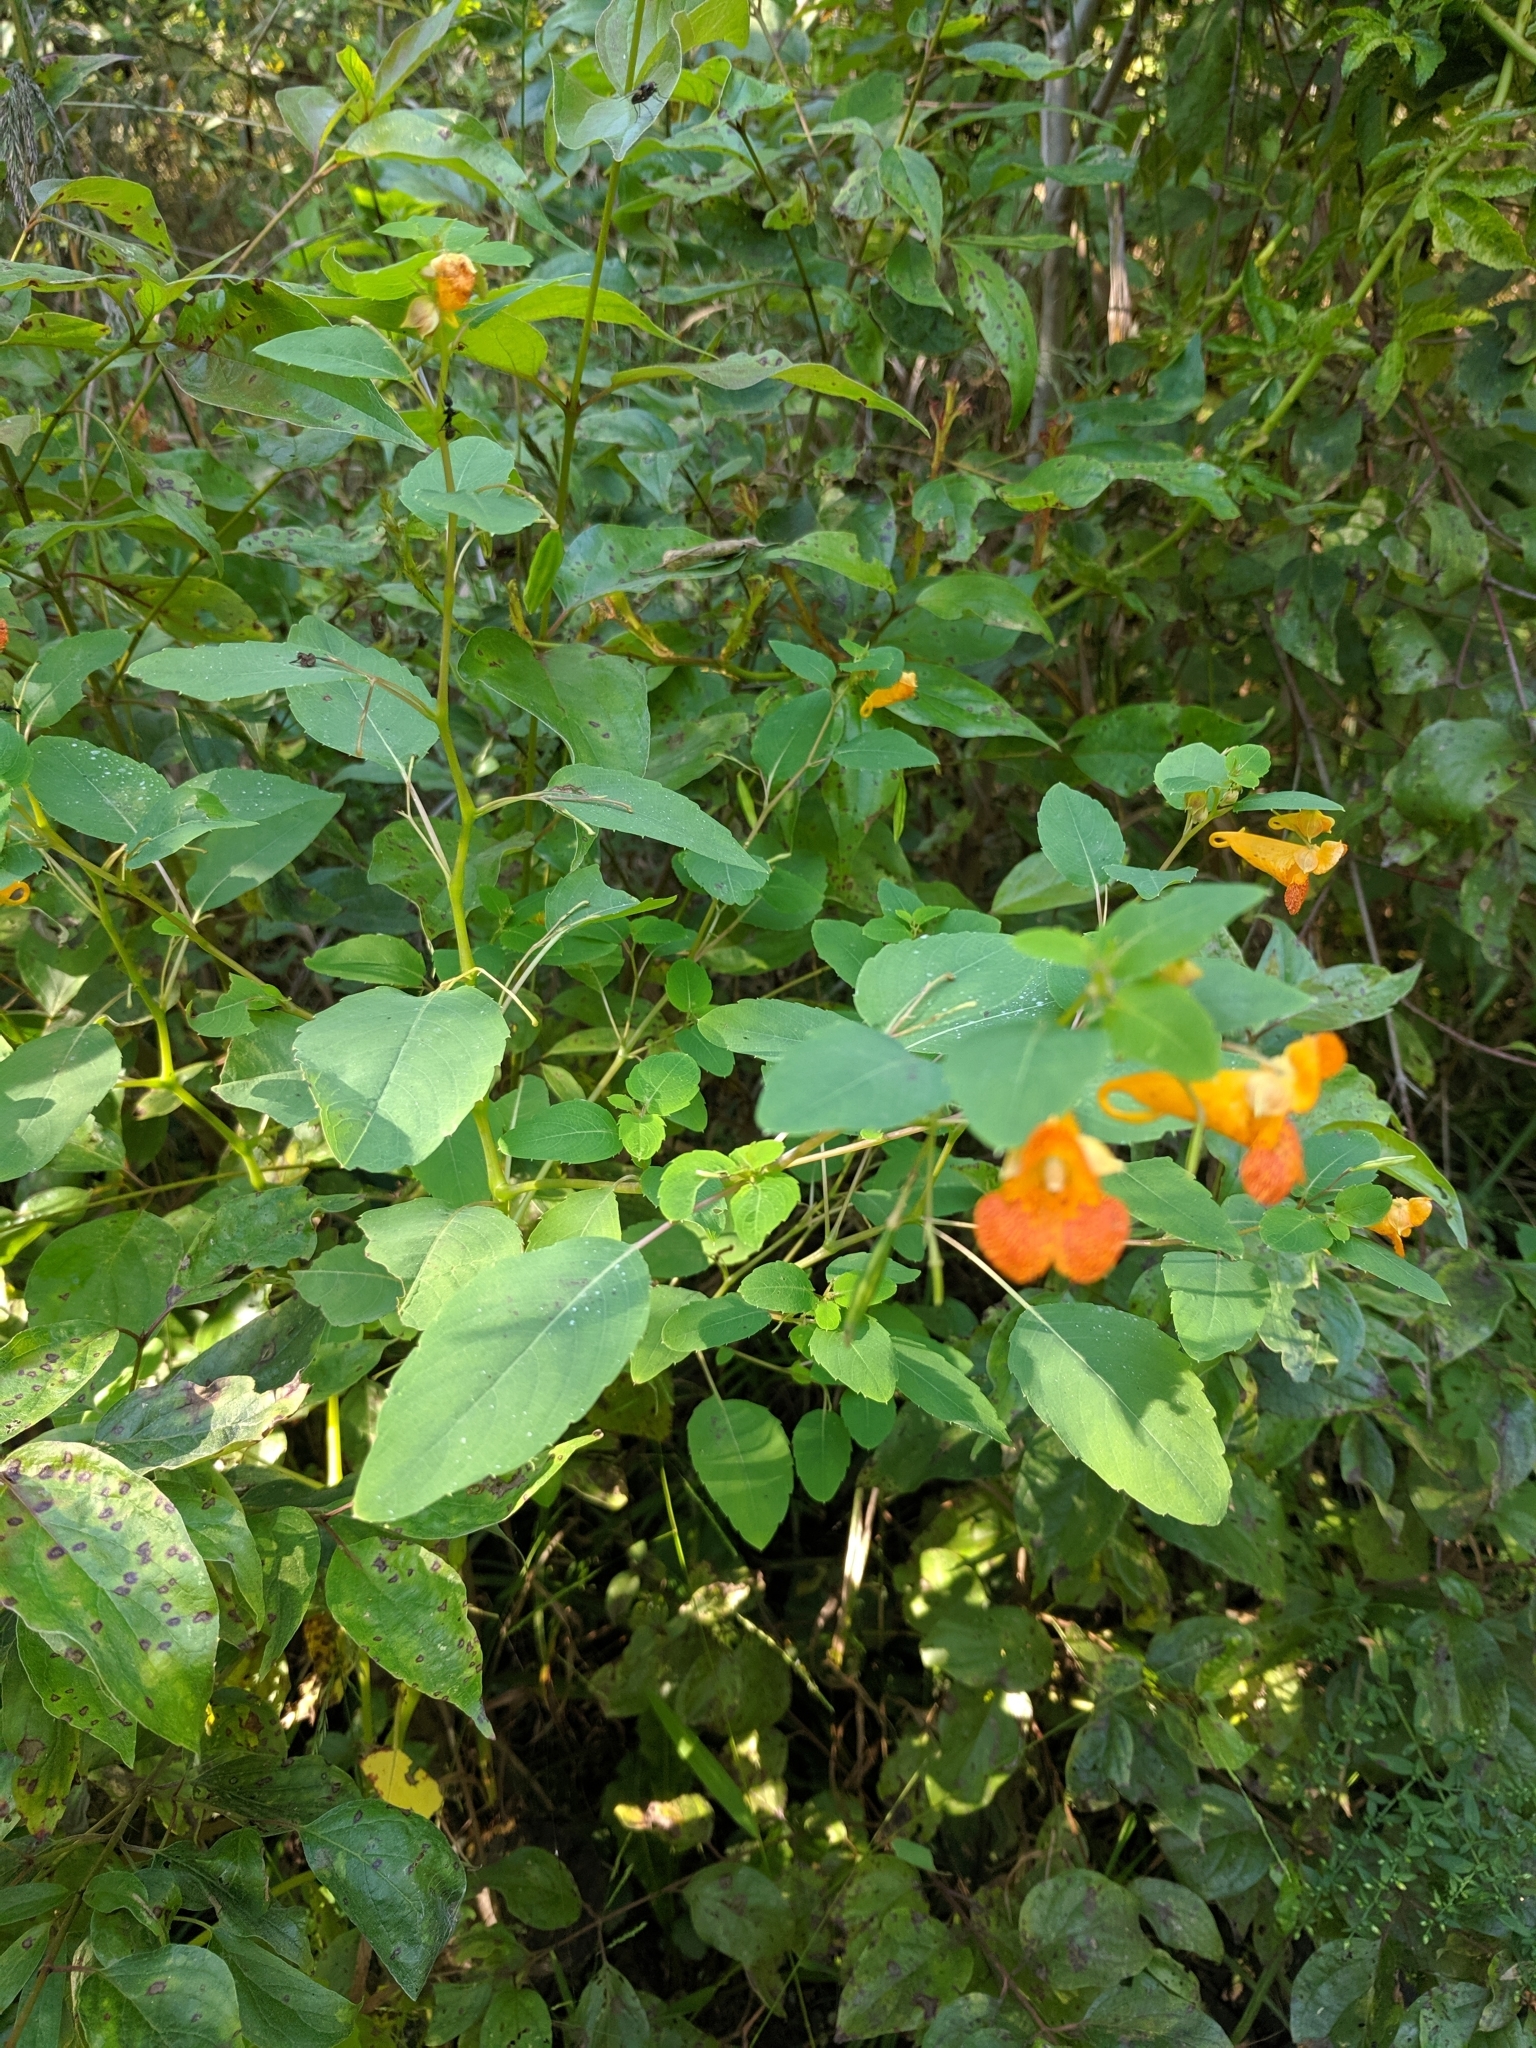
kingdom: Plantae
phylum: Tracheophyta
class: Magnoliopsida
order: Ericales
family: Balsaminaceae
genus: Impatiens
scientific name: Impatiens capensis
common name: Orange balsam
